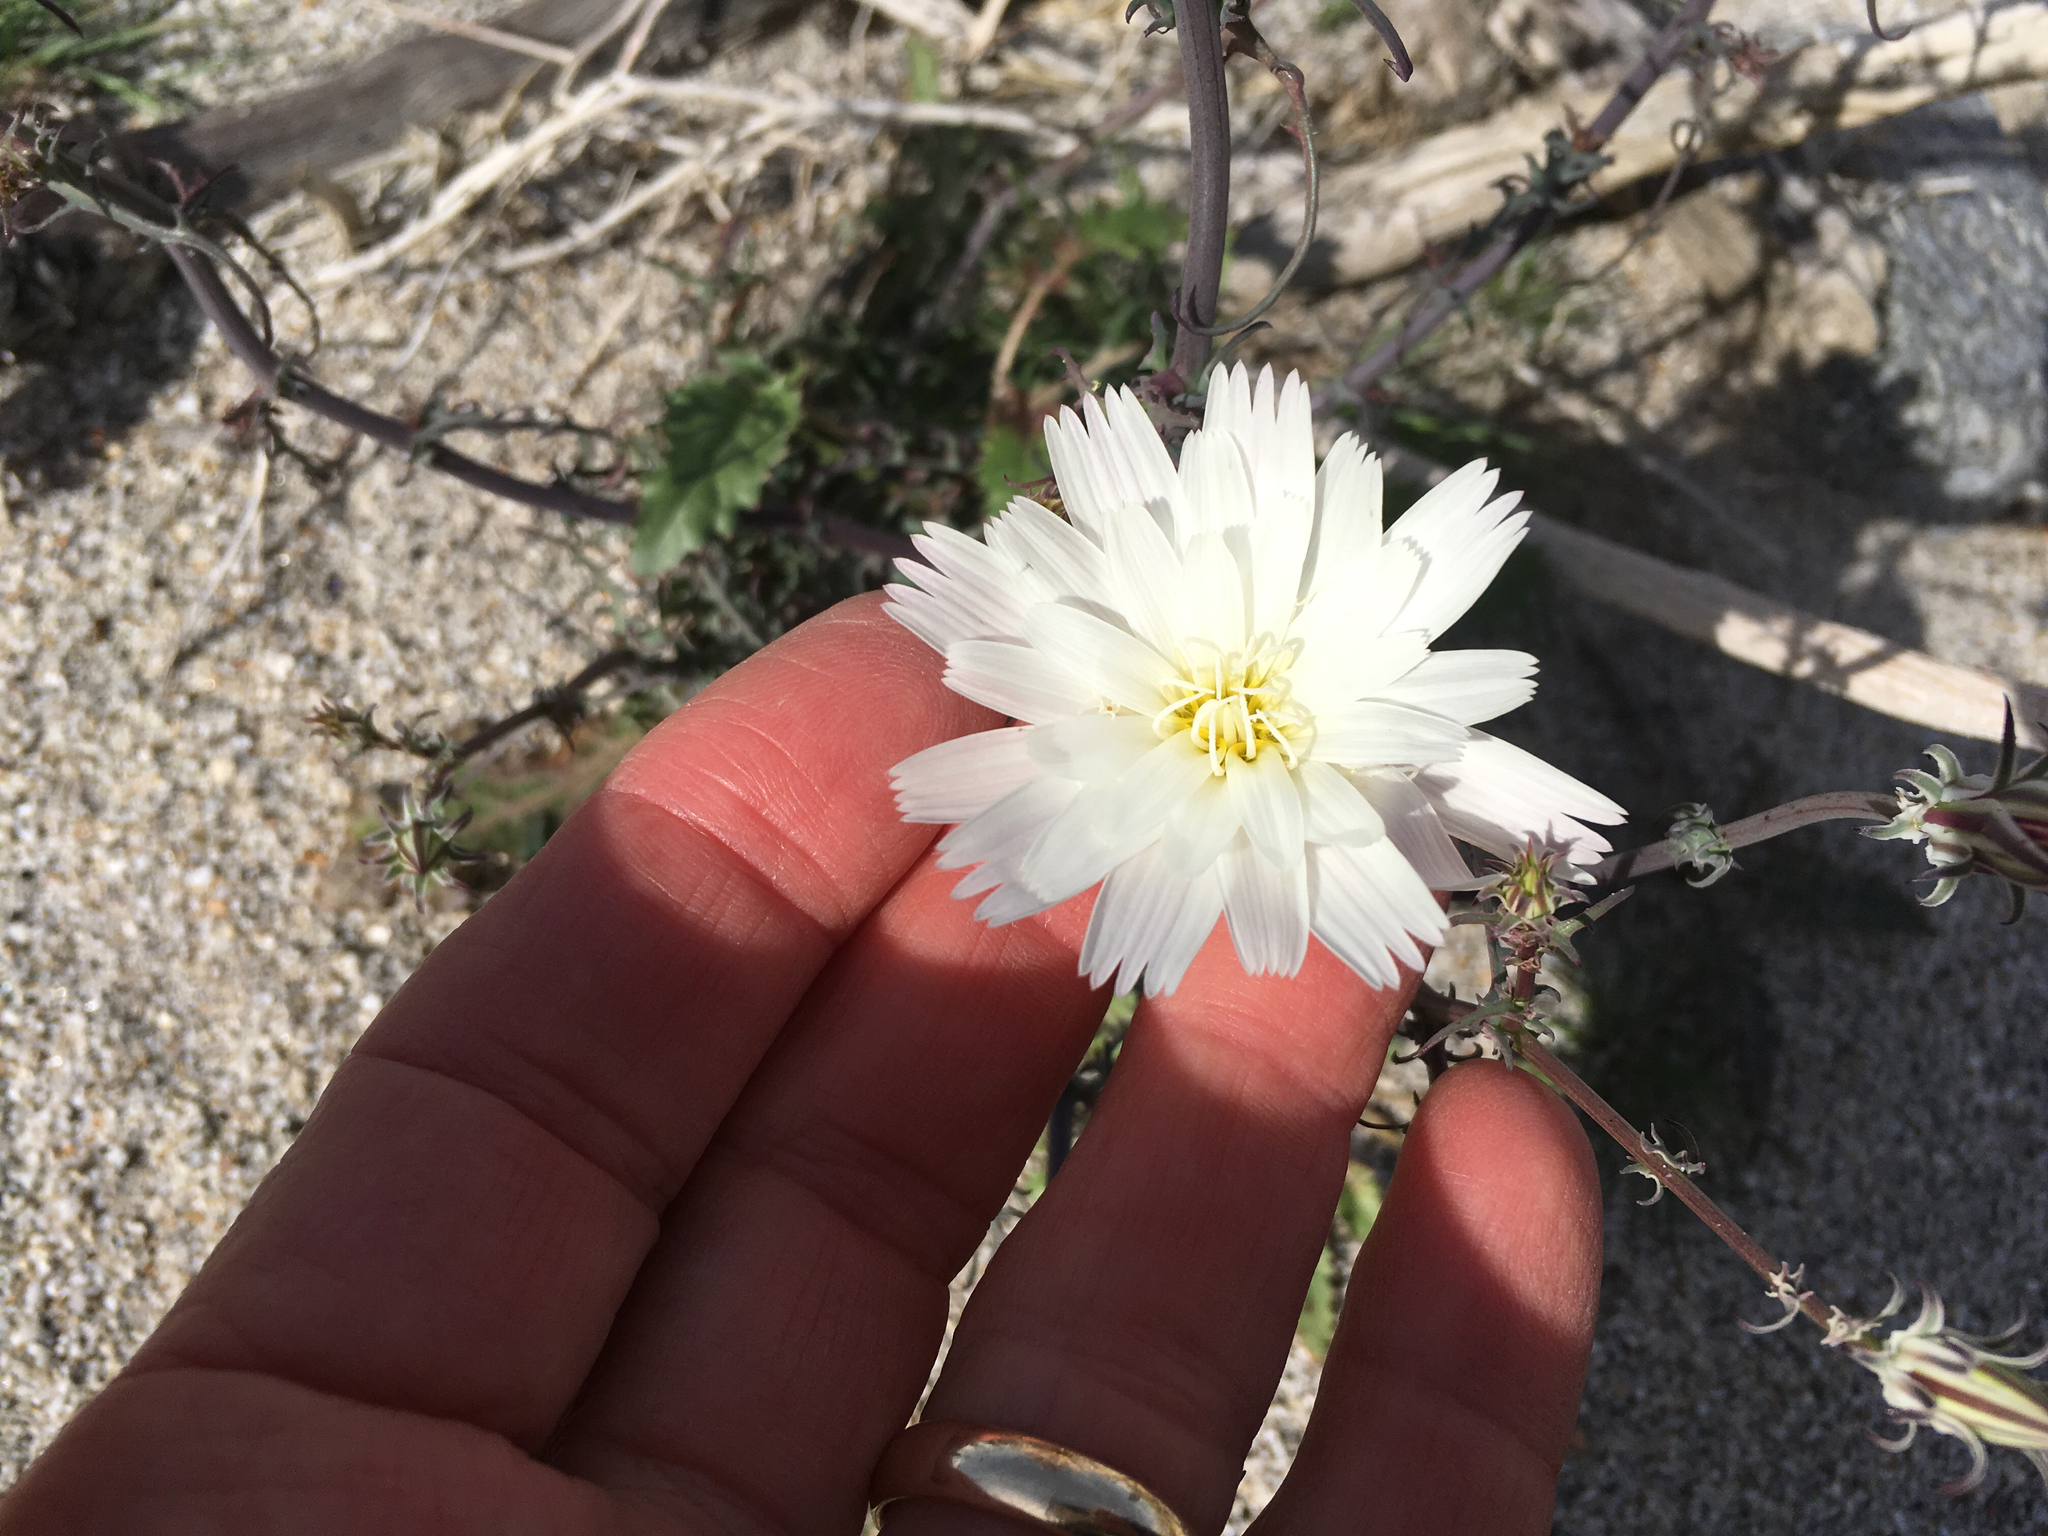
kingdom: Plantae
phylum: Tracheophyta
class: Magnoliopsida
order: Asterales
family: Asteraceae
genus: Rafinesquia
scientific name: Rafinesquia neomexicana
